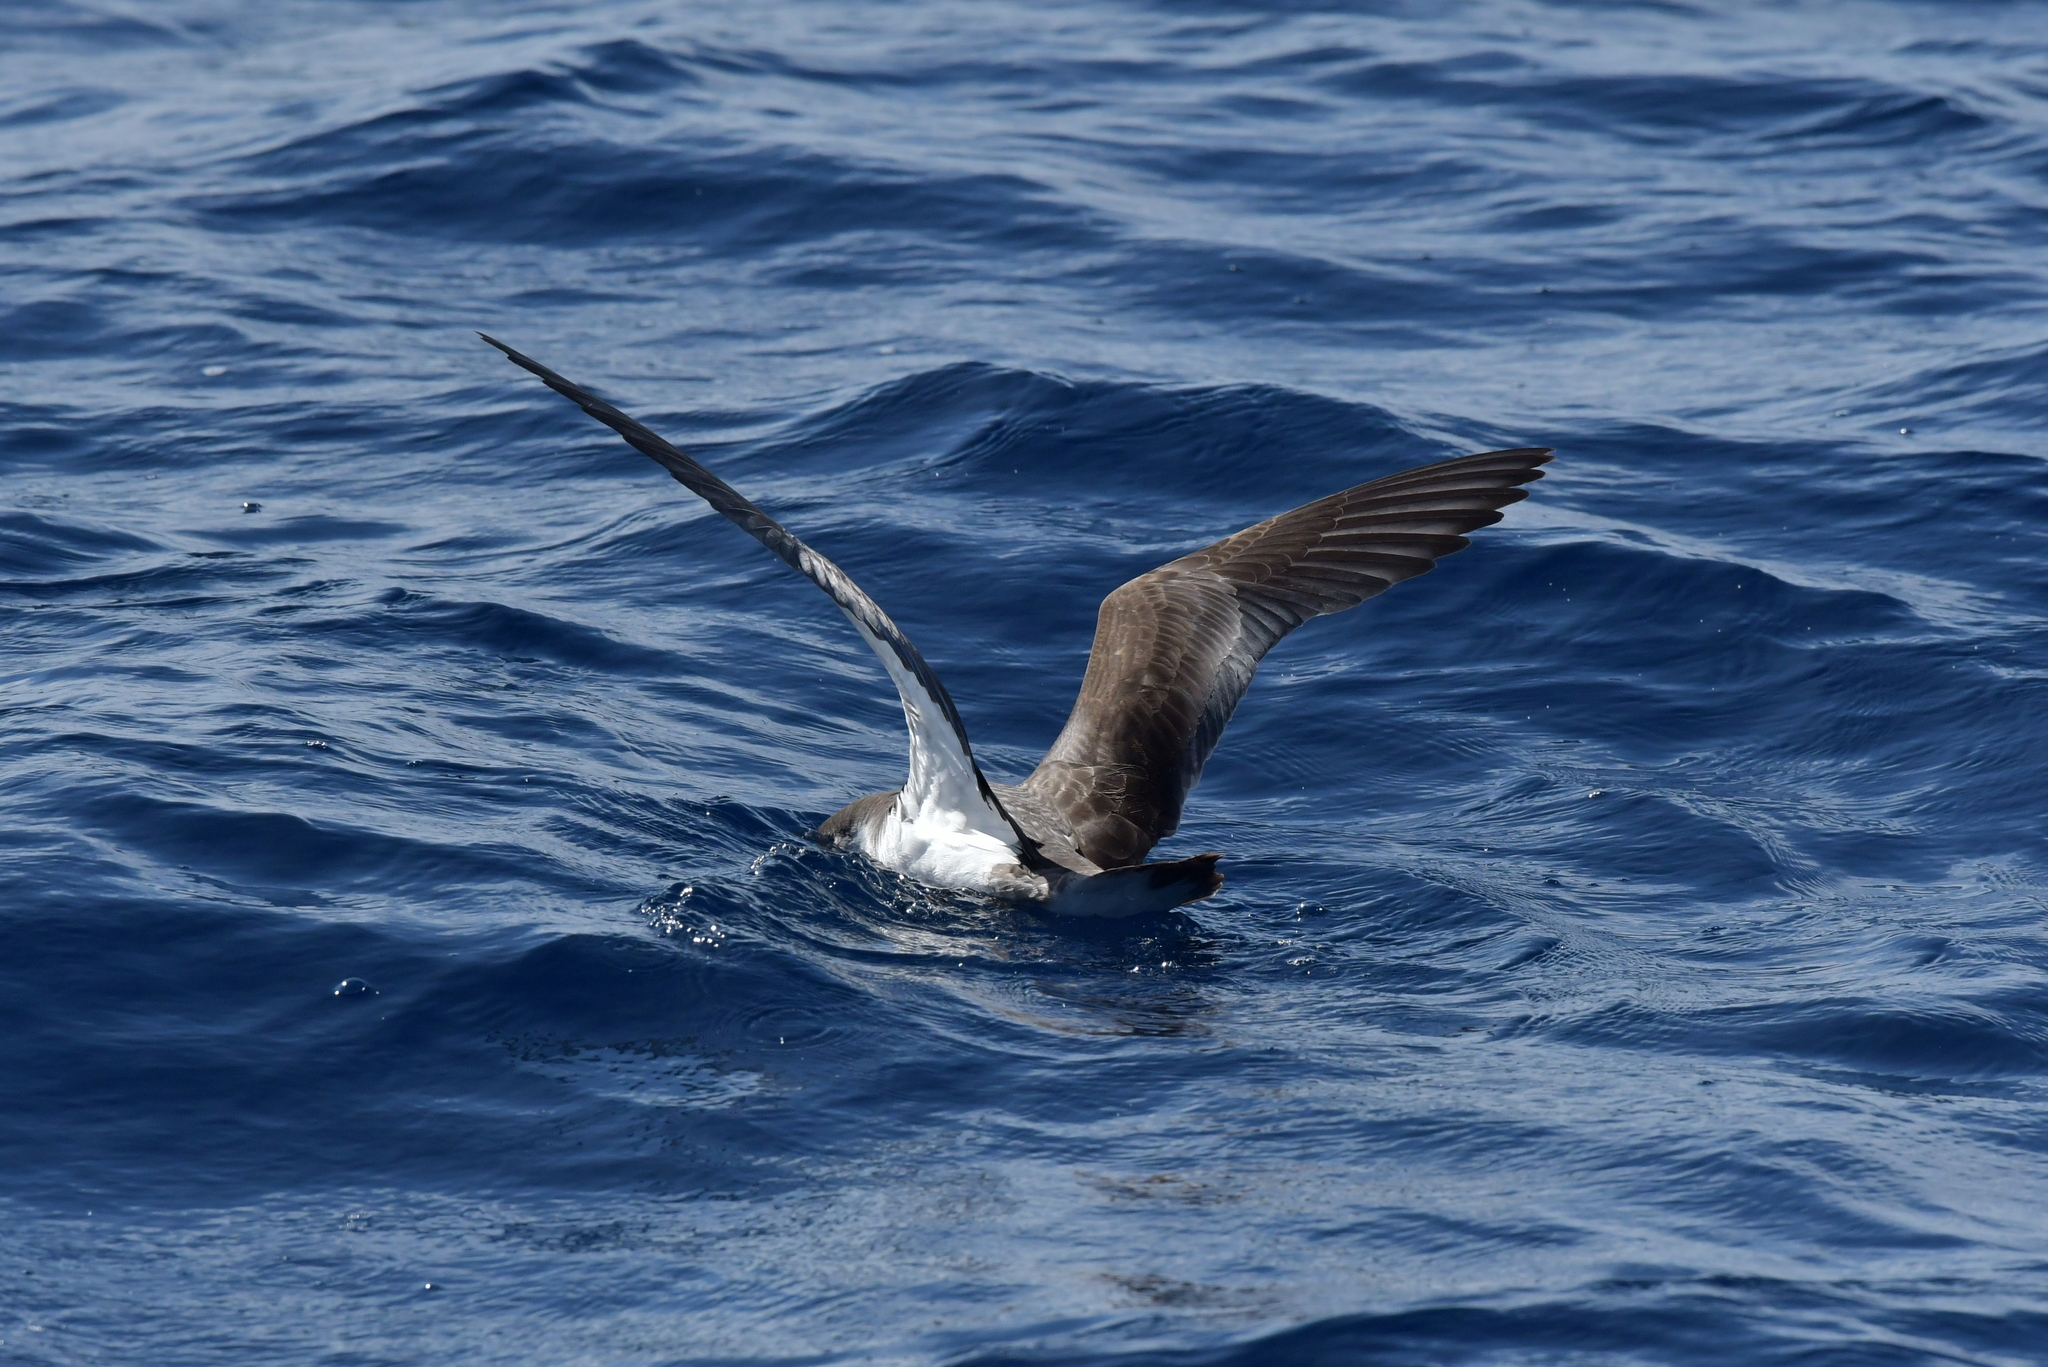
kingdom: Animalia
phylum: Chordata
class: Aves
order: Procellariiformes
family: Procellariidae
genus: Puffinus
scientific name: Puffinus bulleri
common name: Buller's shearwater
